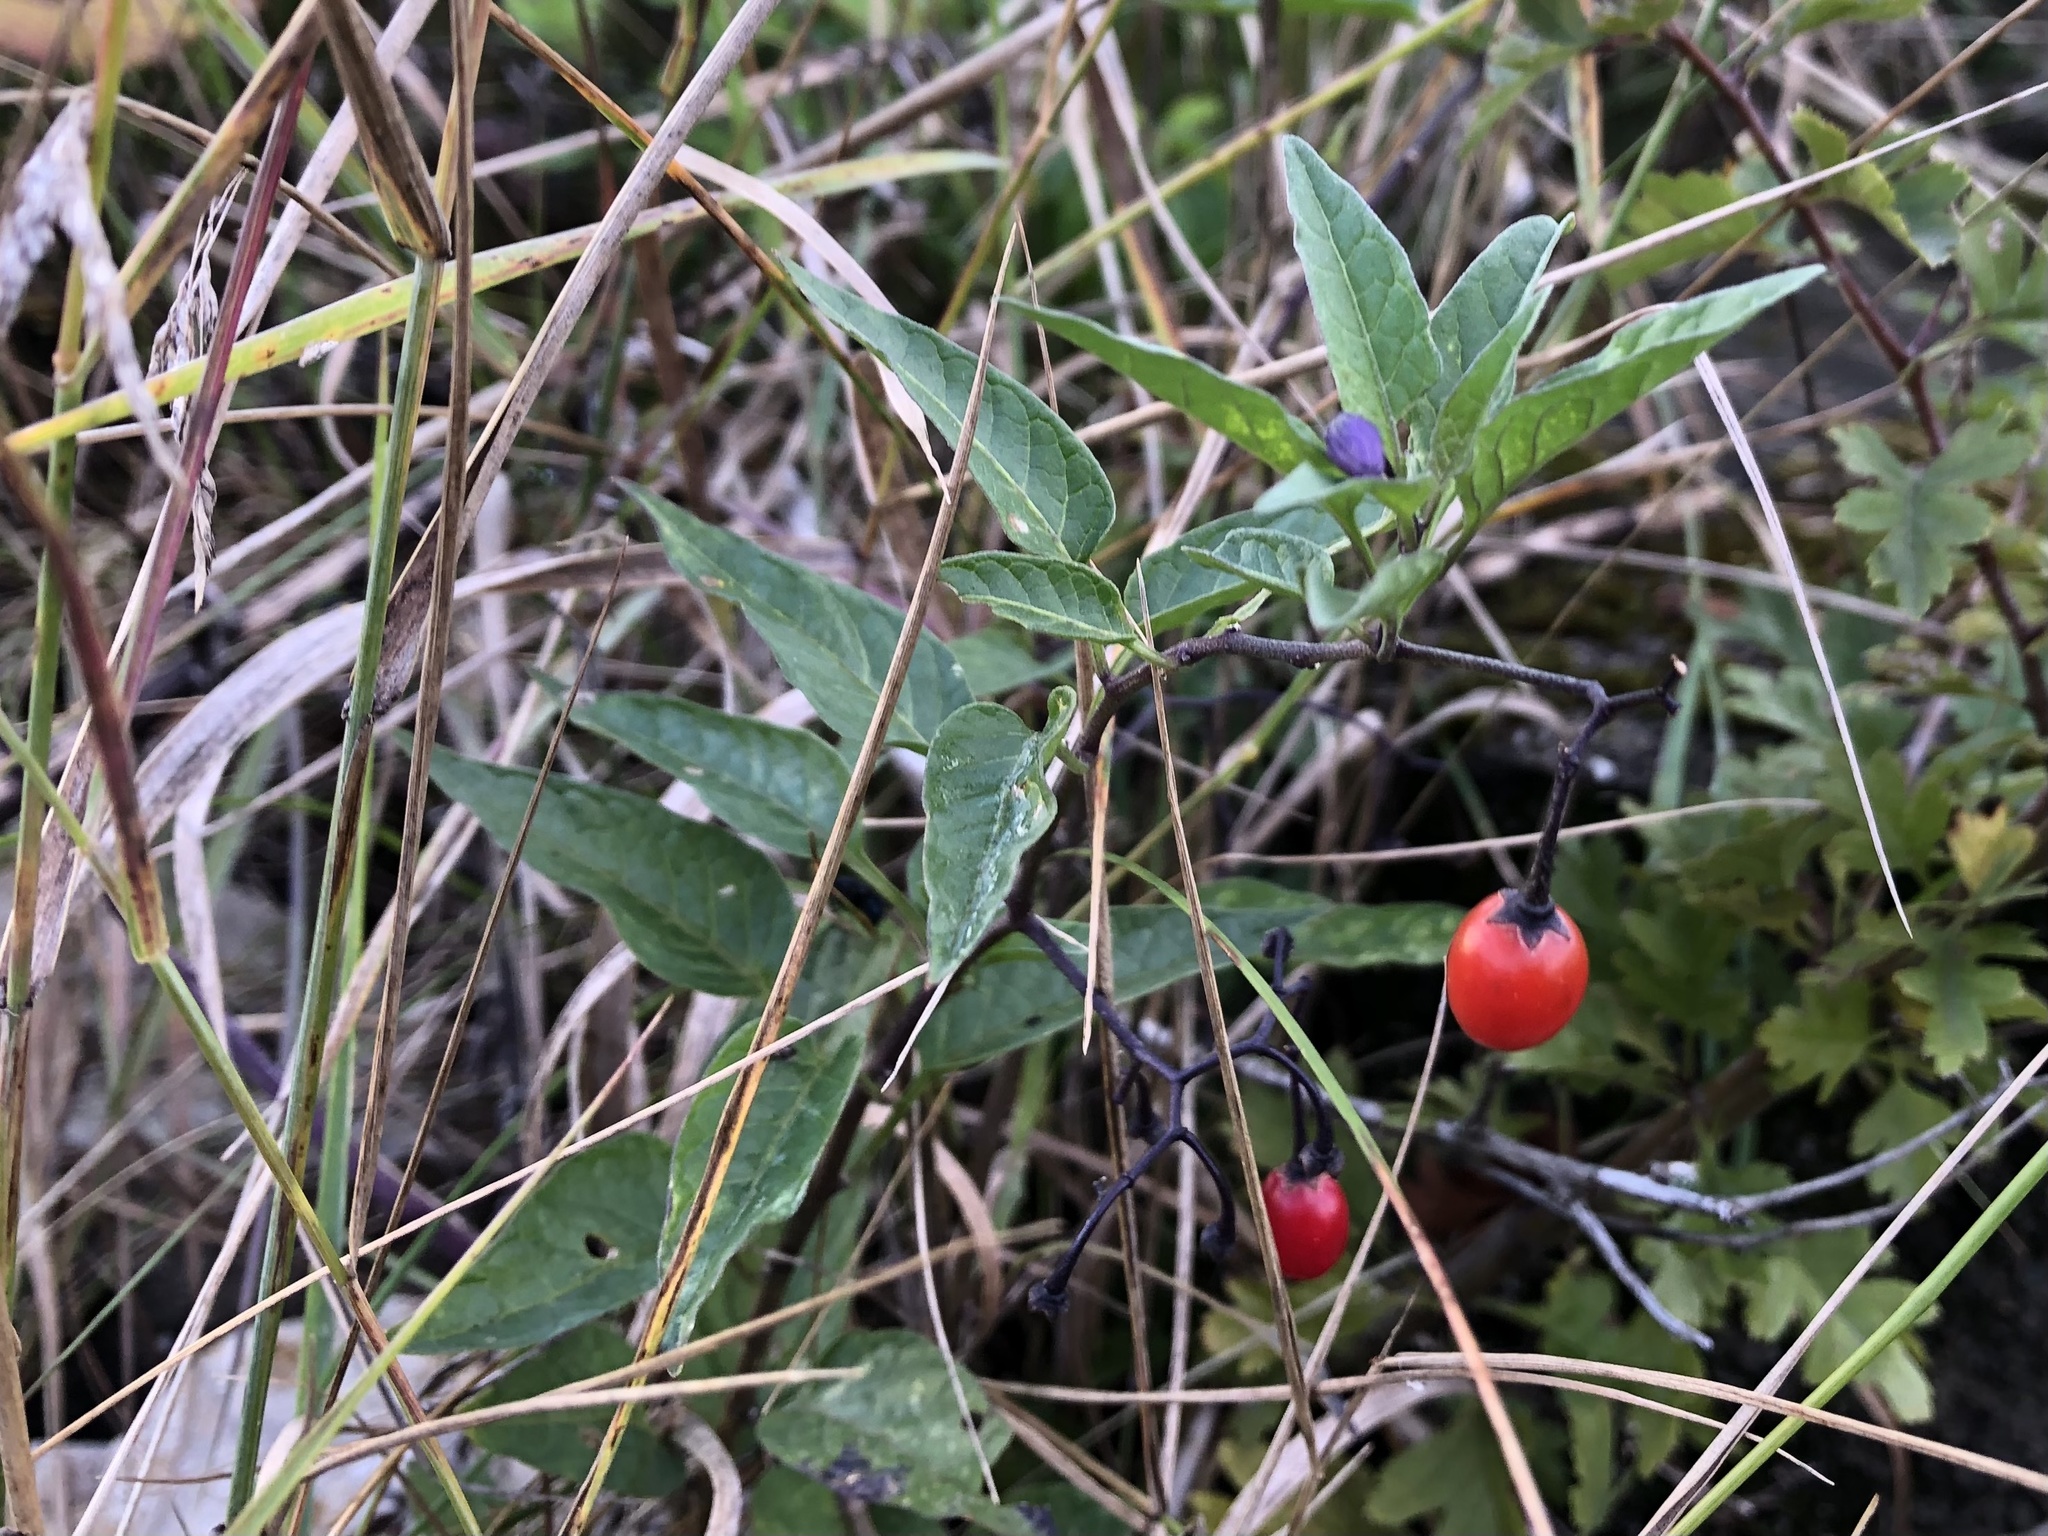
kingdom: Plantae
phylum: Tracheophyta
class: Magnoliopsida
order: Solanales
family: Solanaceae
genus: Solanum
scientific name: Solanum dulcamara
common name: Climbing nightshade
